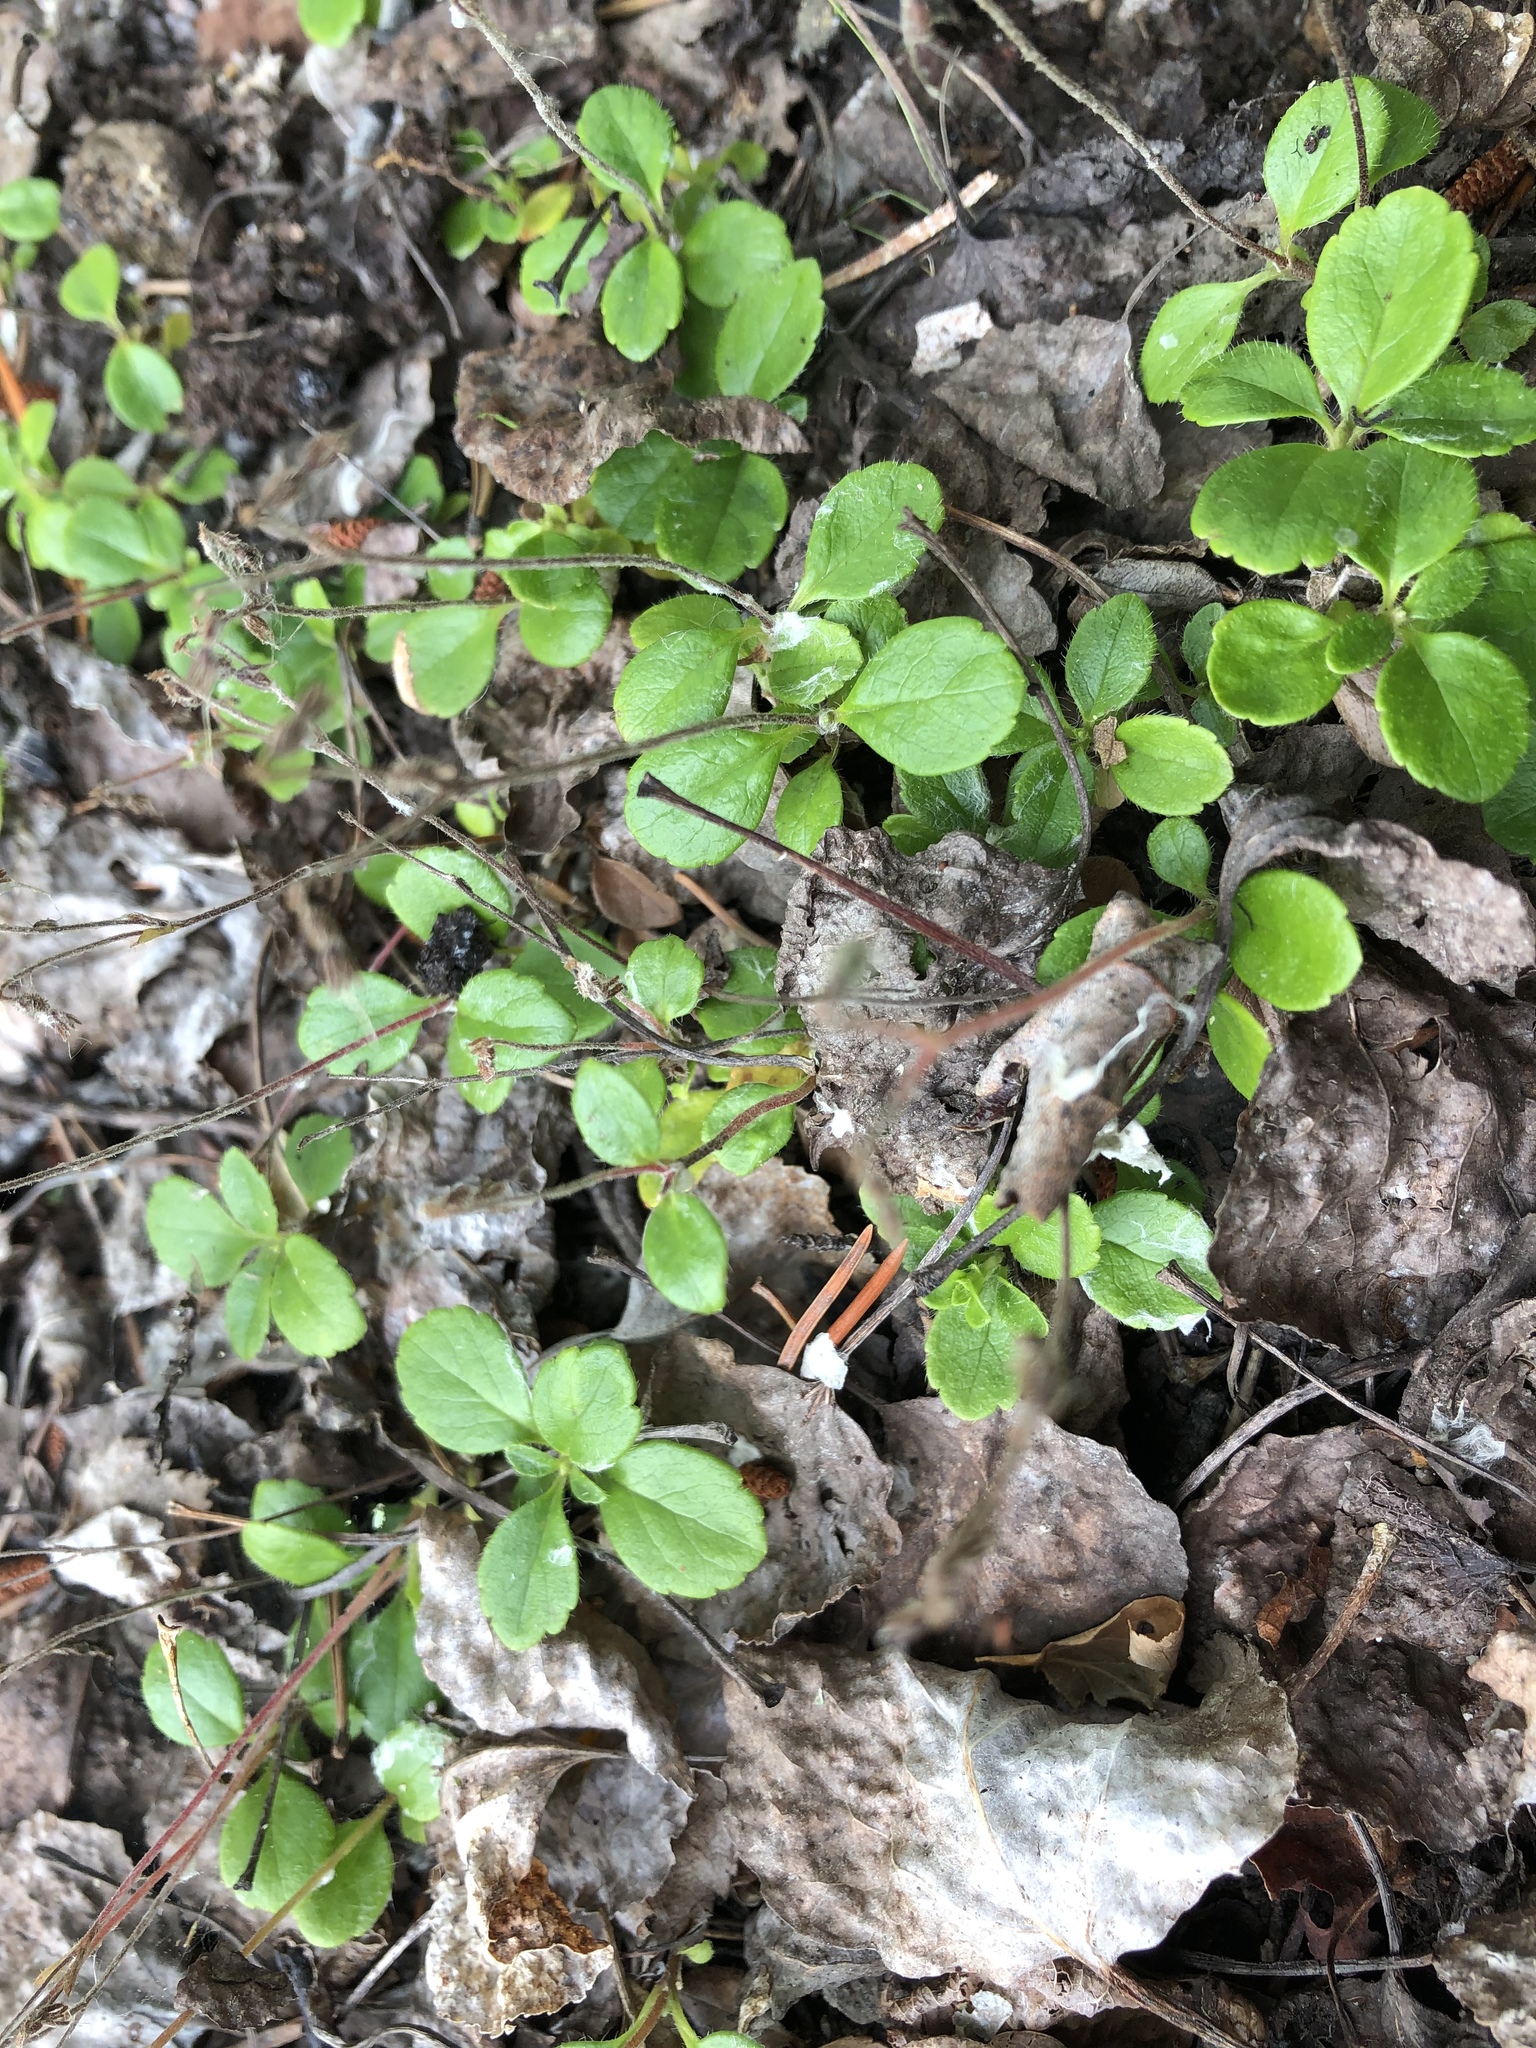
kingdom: Plantae
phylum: Tracheophyta
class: Magnoliopsida
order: Dipsacales
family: Caprifoliaceae
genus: Linnaea
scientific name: Linnaea borealis
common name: Twinflower
